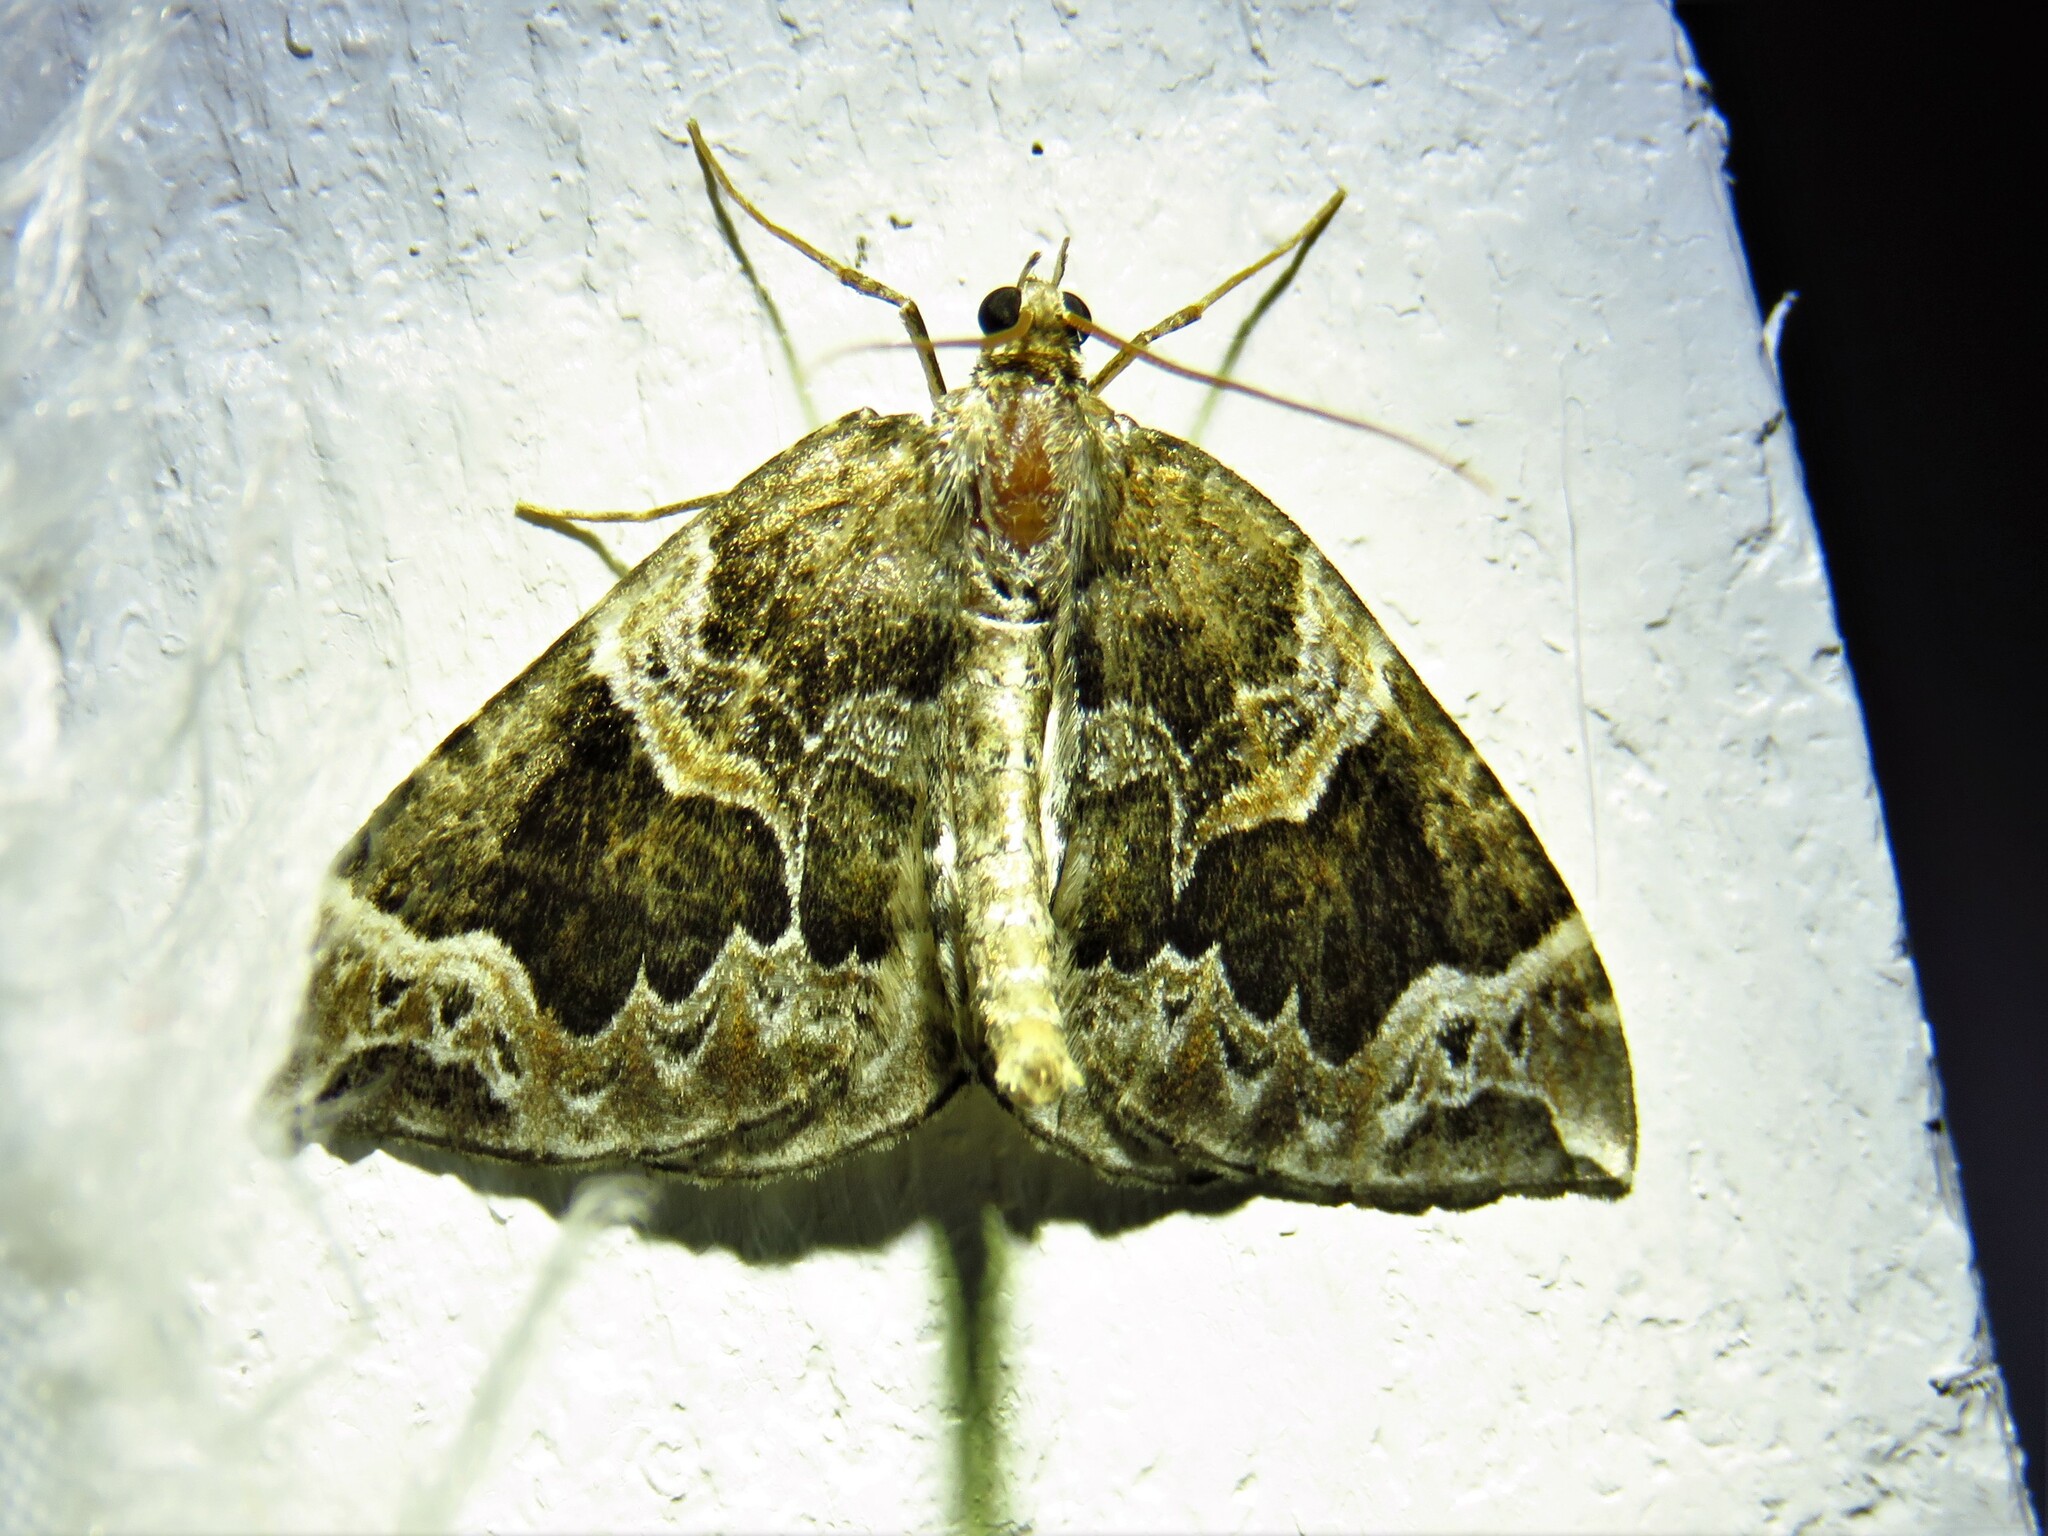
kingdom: Animalia
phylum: Arthropoda
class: Insecta
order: Lepidoptera
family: Geometridae
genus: Eulithis
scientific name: Eulithis prunata
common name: Phoenix
